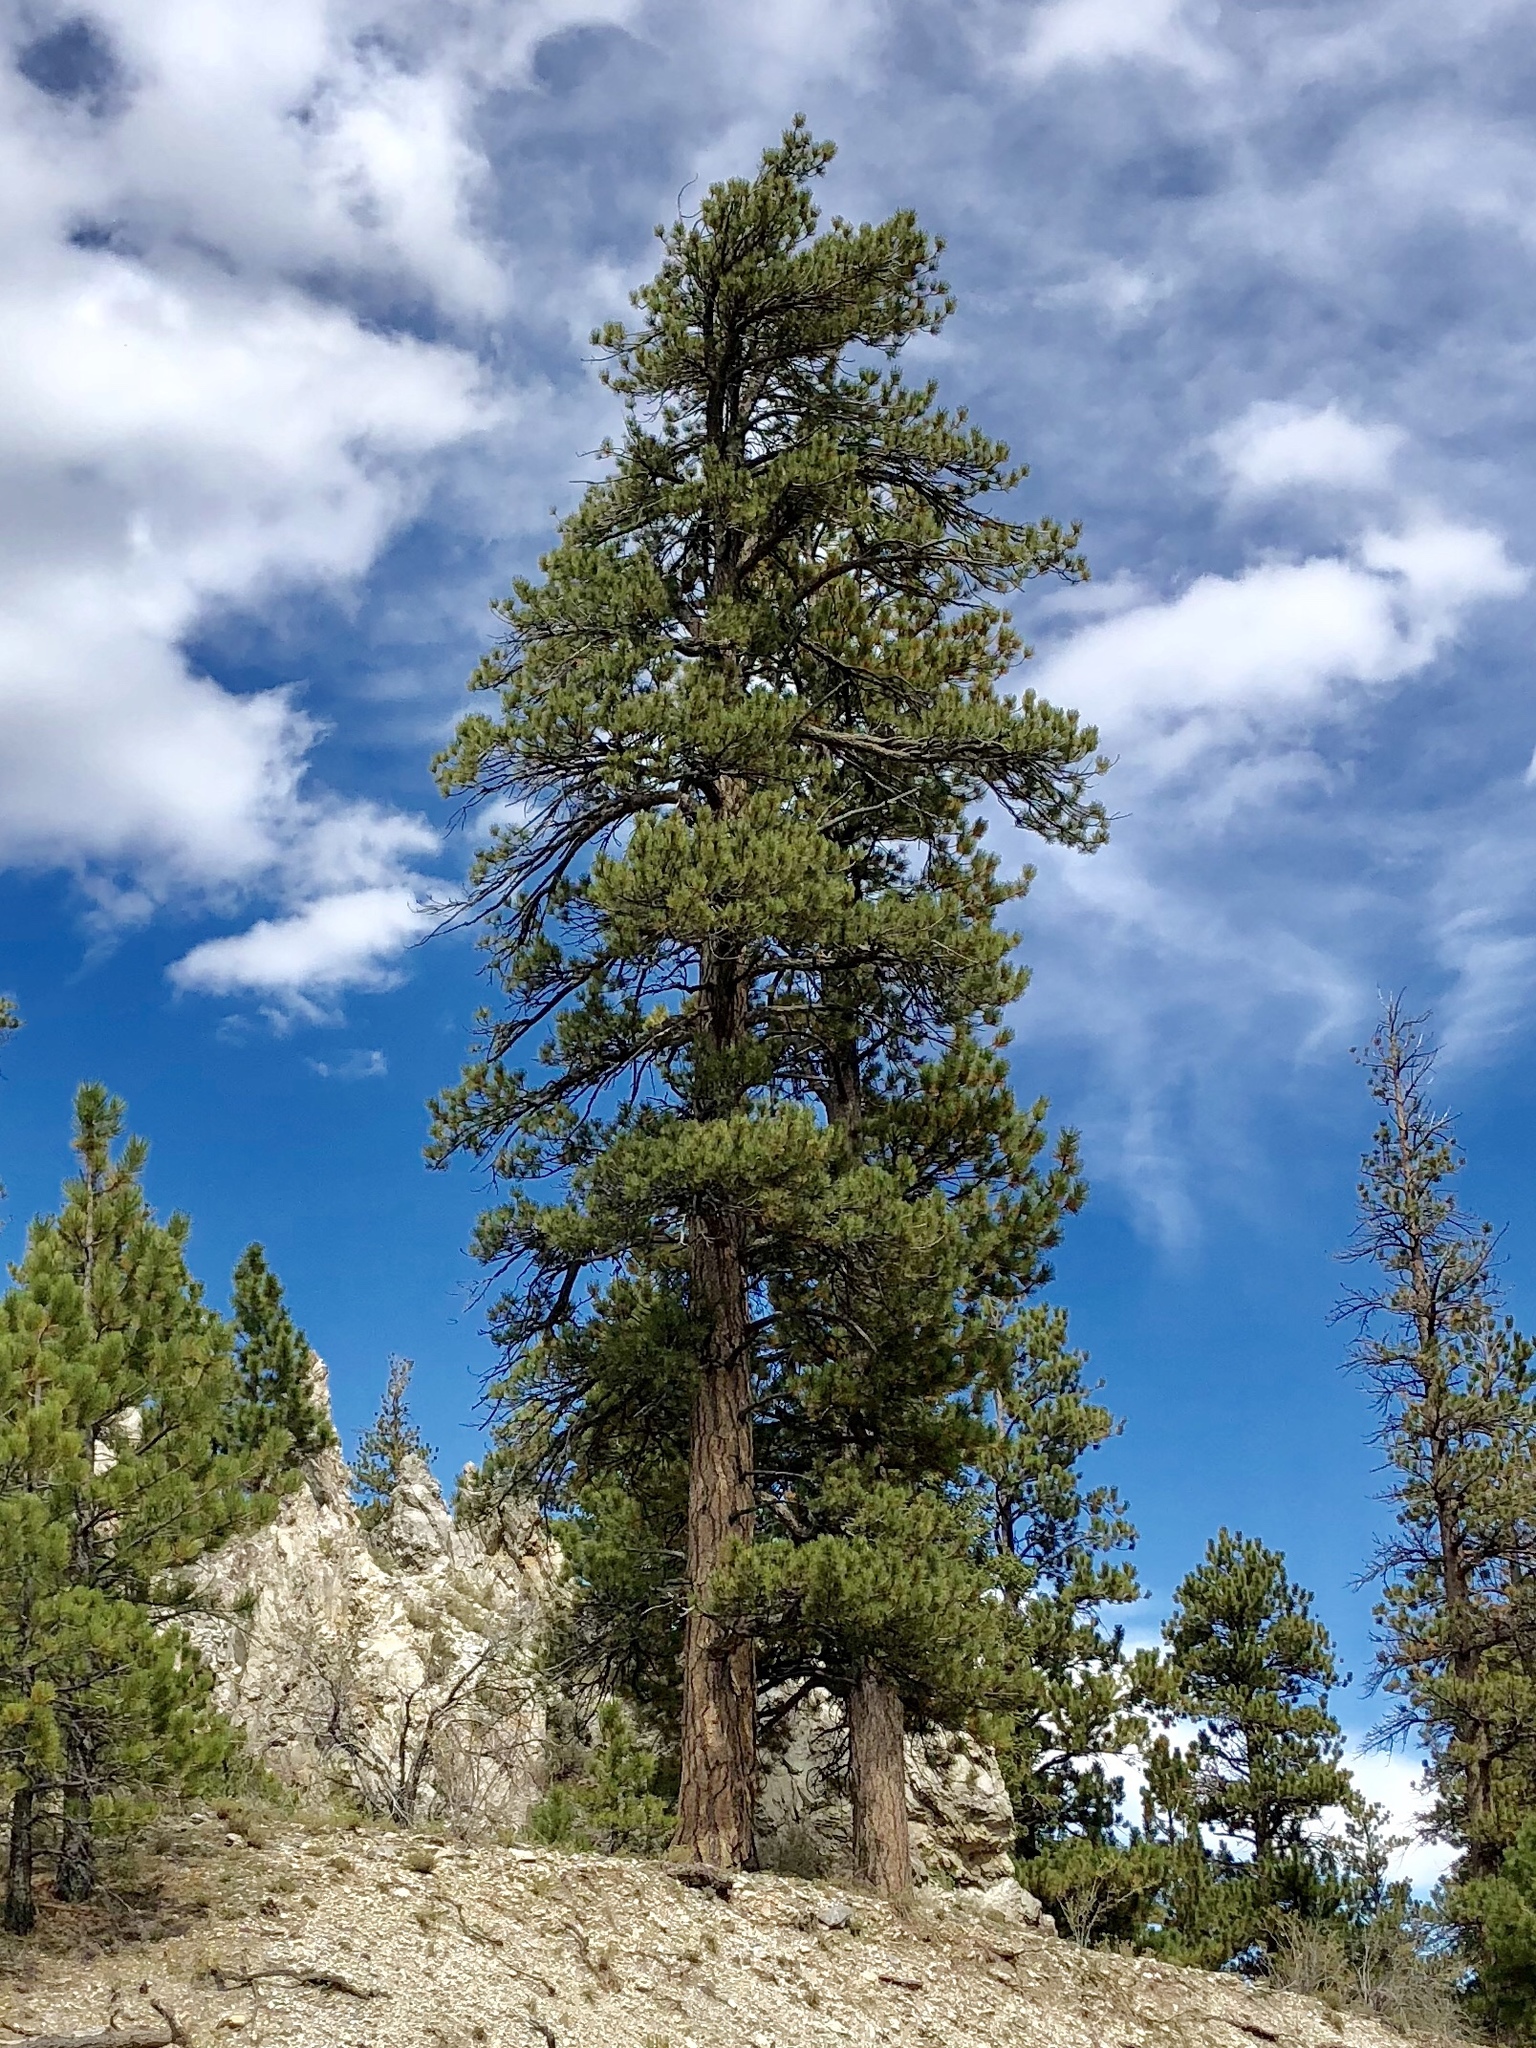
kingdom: Plantae
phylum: Tracheophyta
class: Pinopsida
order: Pinales
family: Pinaceae
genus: Pinus
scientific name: Pinus ponderosa
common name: Western yellow-pine
